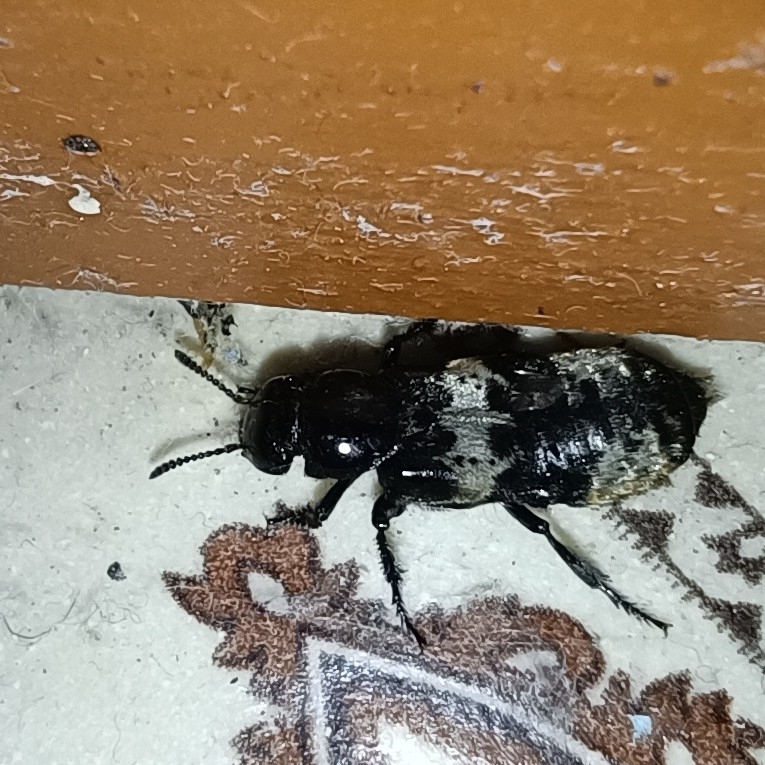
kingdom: Animalia
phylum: Arthropoda
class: Insecta
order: Coleoptera
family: Staphylinidae
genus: Creophilus
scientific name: Creophilus maxillosus
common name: Hairy rove beetle
